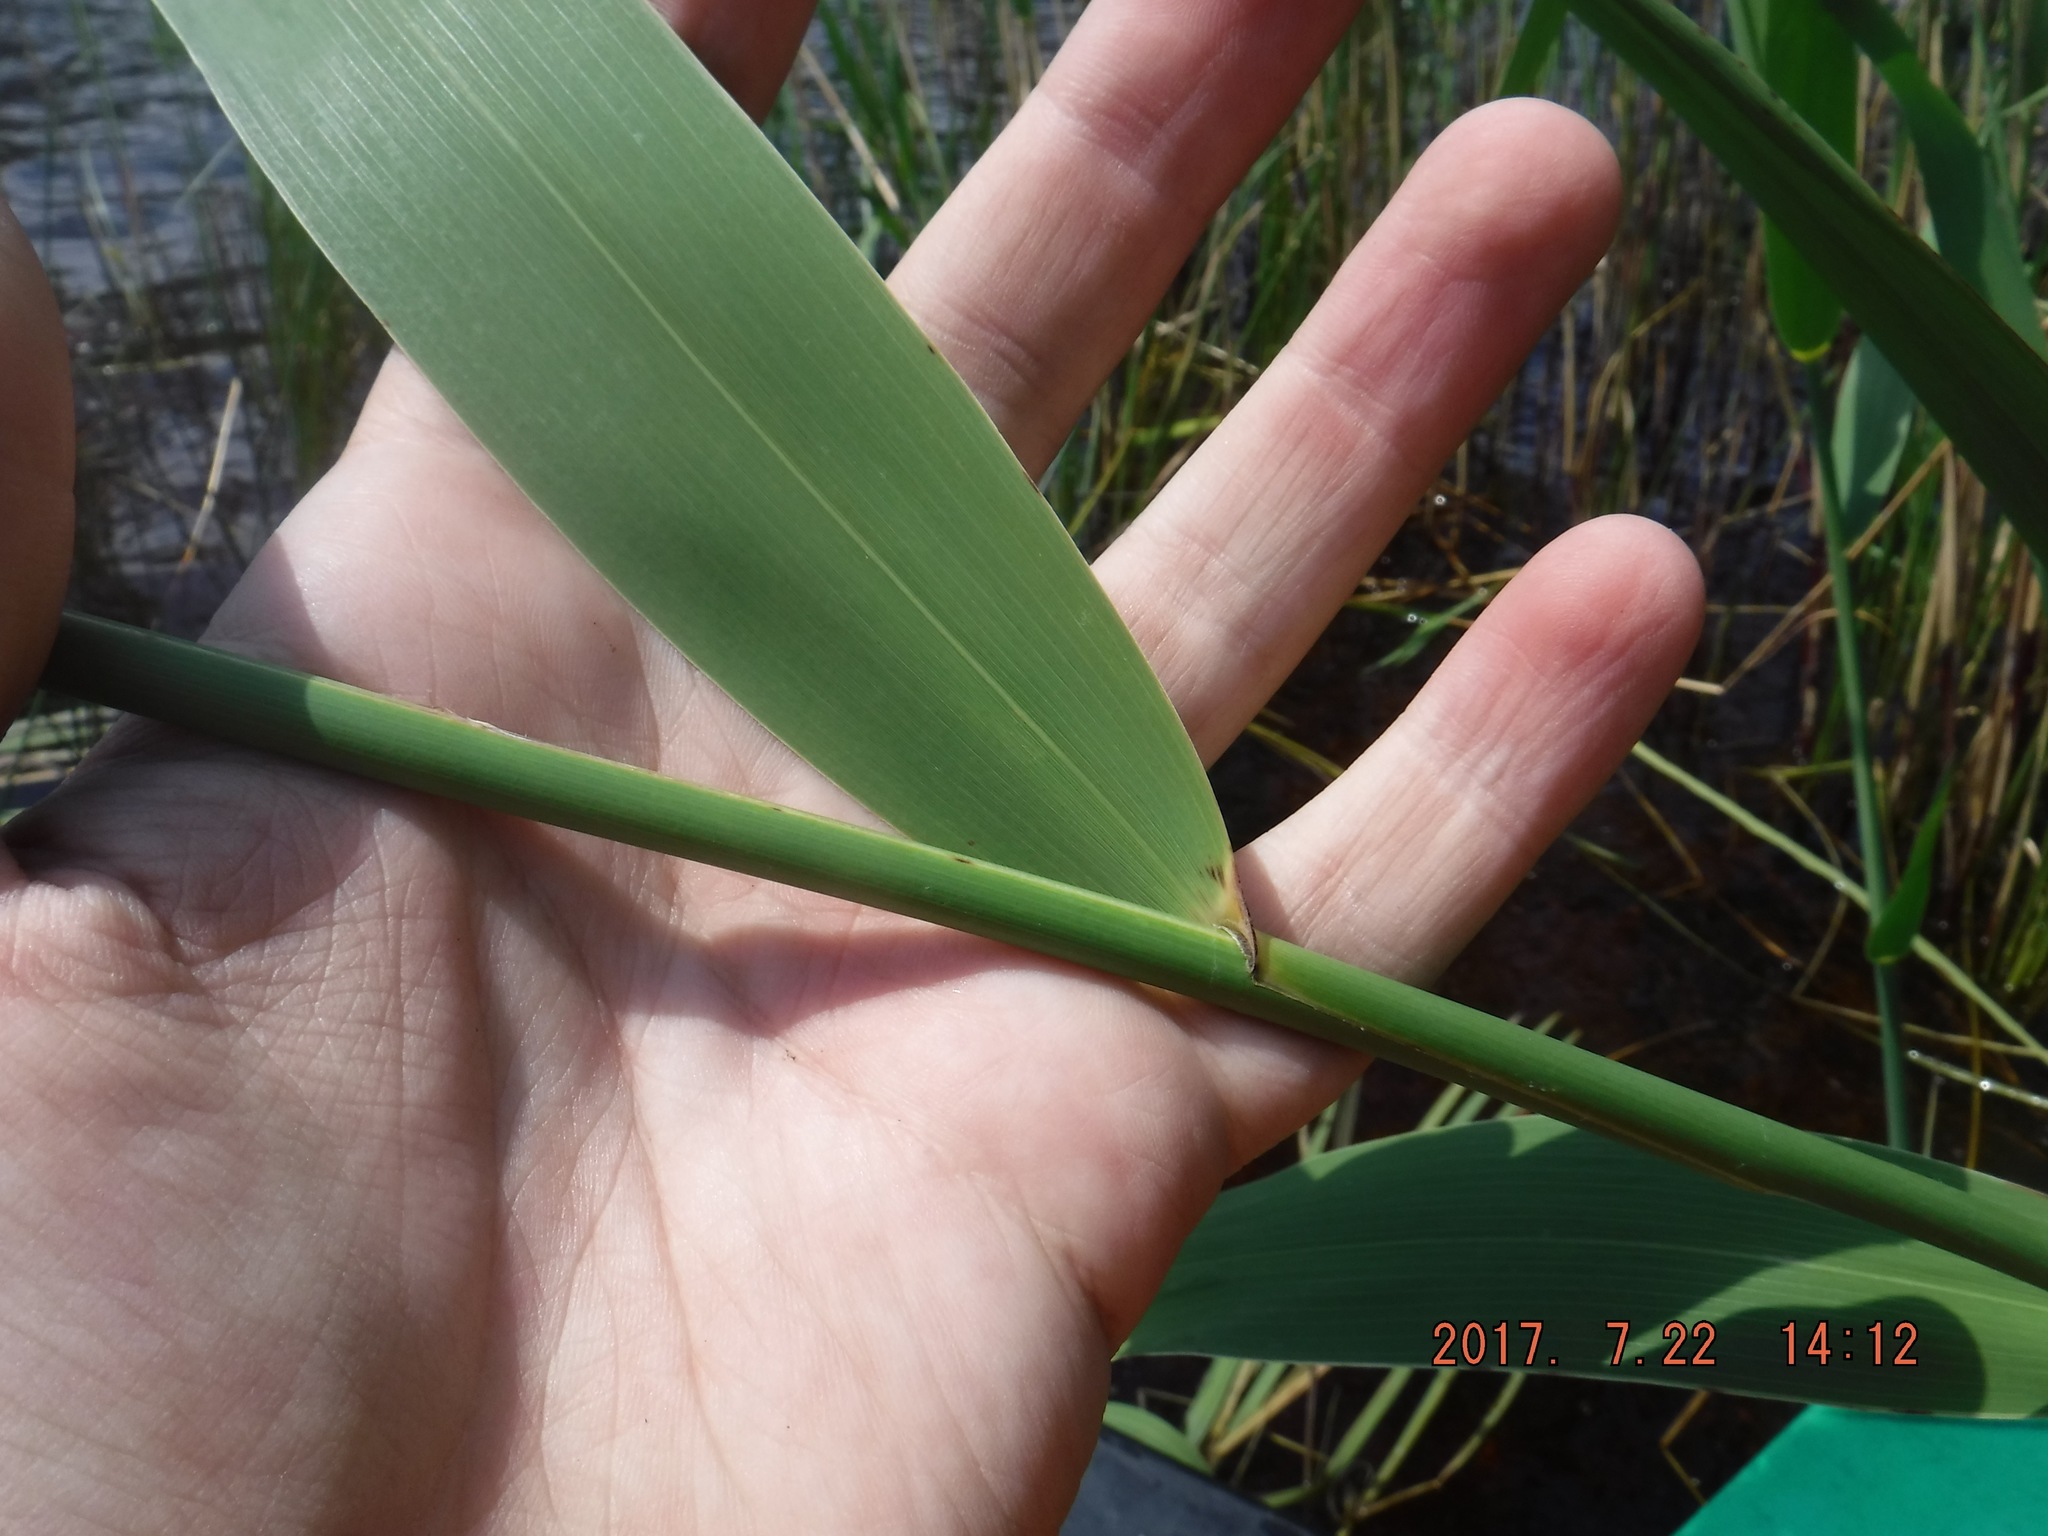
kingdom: Plantae
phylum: Tracheophyta
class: Liliopsida
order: Poales
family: Poaceae
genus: Phragmites
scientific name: Phragmites australis
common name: Common reed
